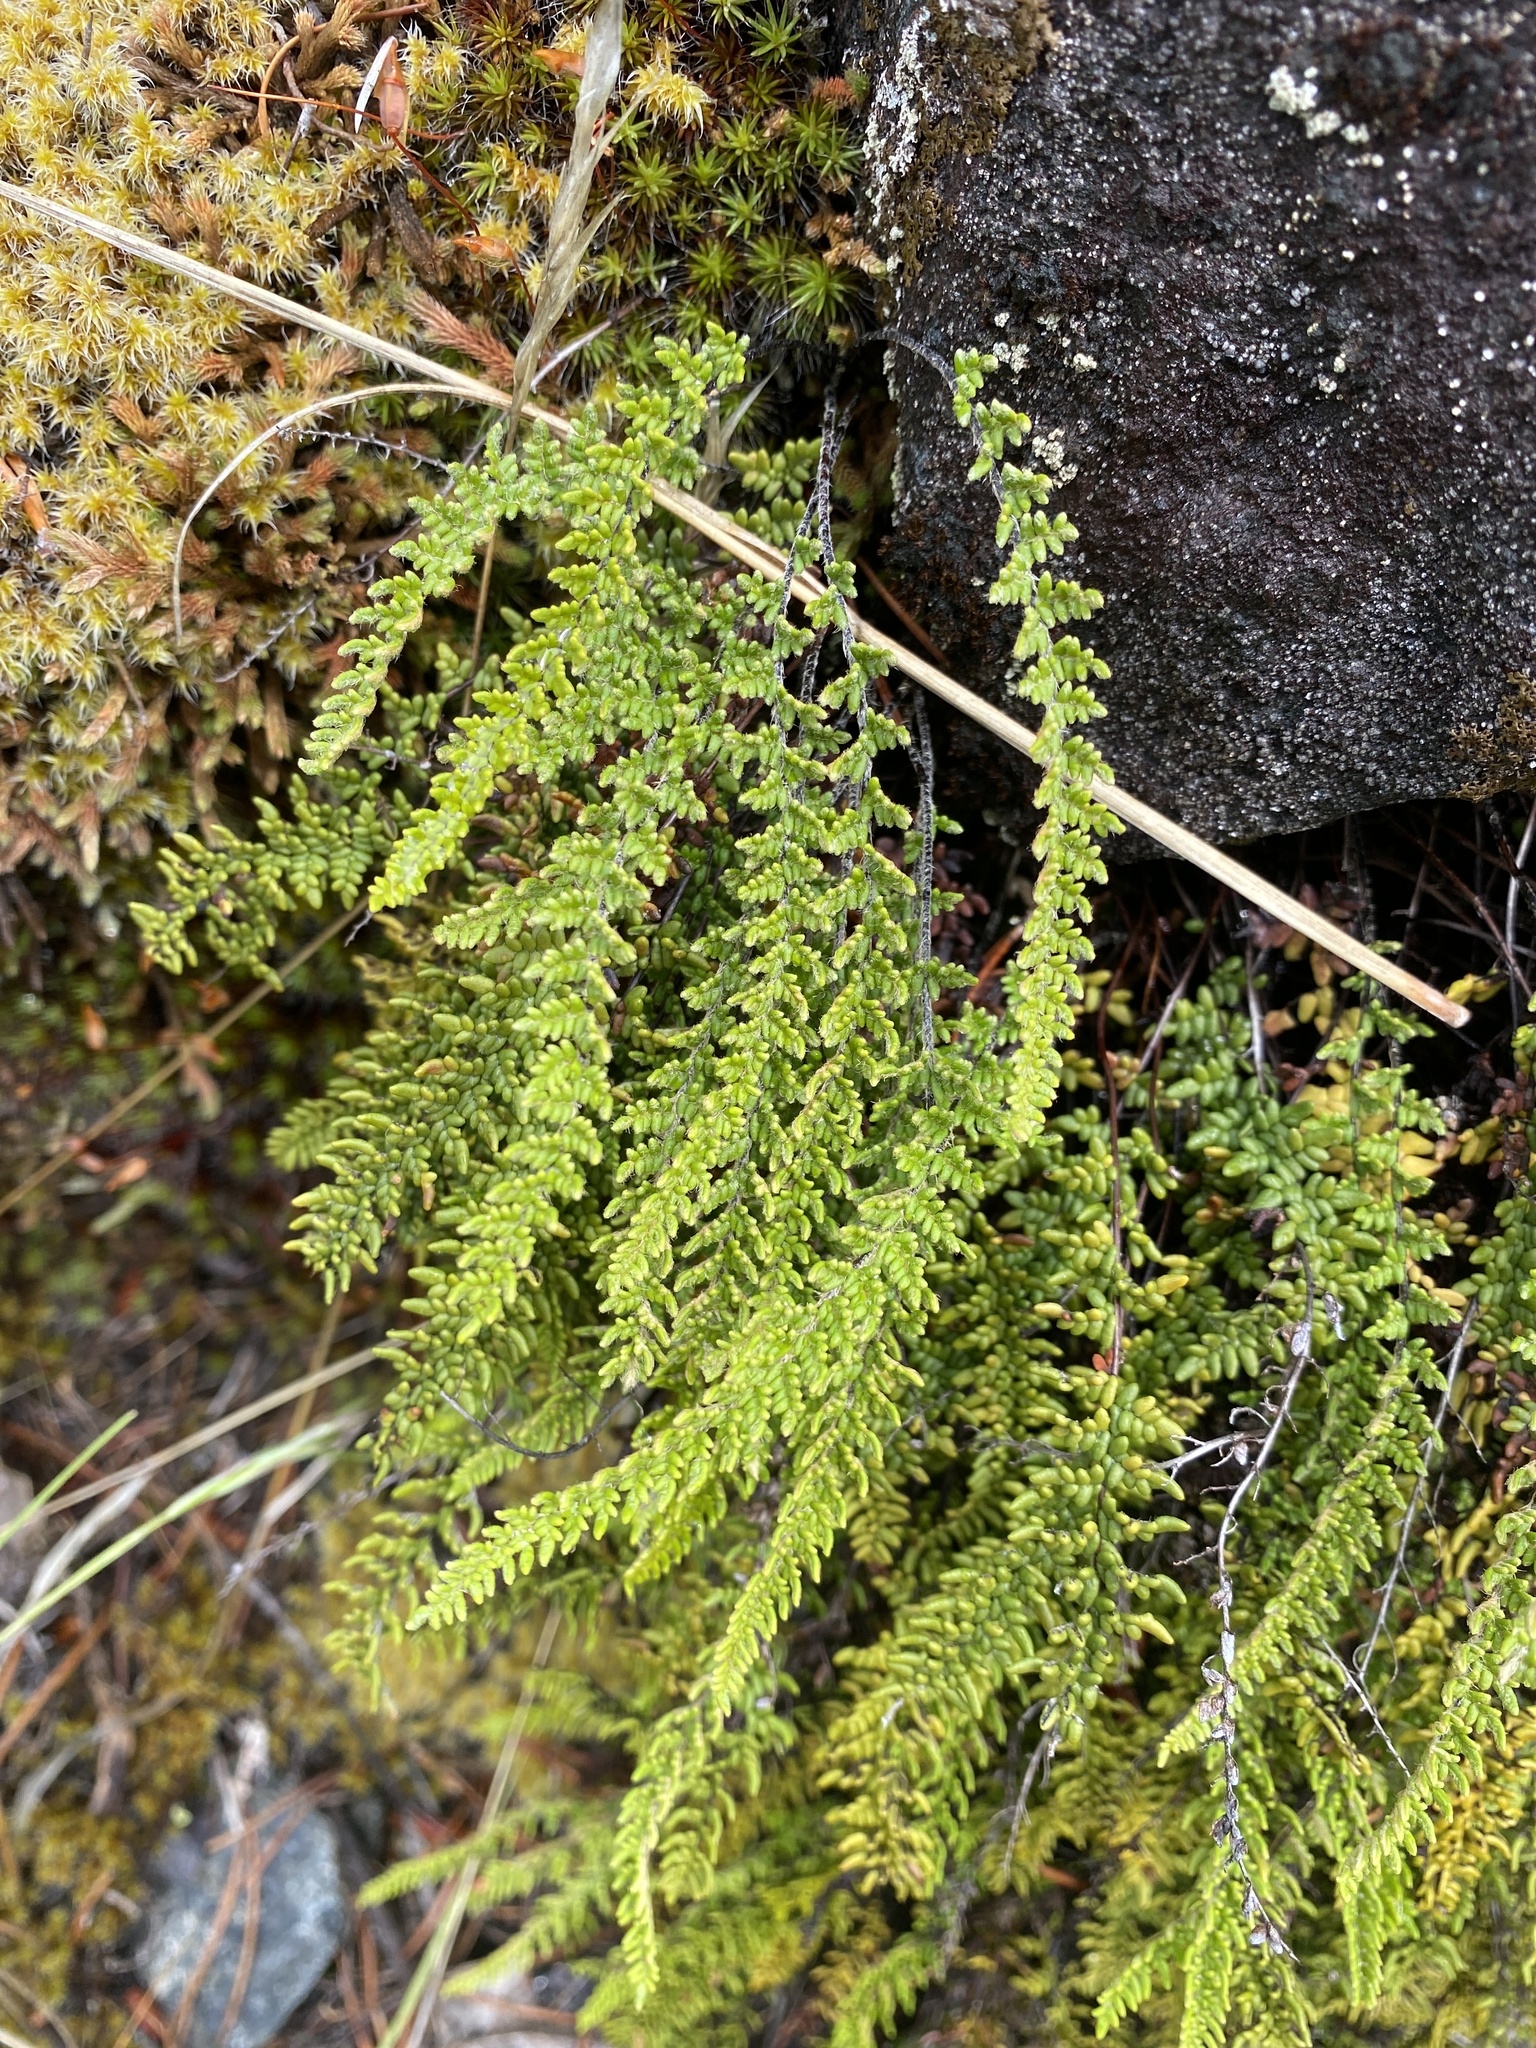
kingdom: Plantae
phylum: Tracheophyta
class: Polypodiopsida
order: Polypodiales
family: Pteridaceae
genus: Myriopteris
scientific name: Myriopteris gracillima
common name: Lace fern
